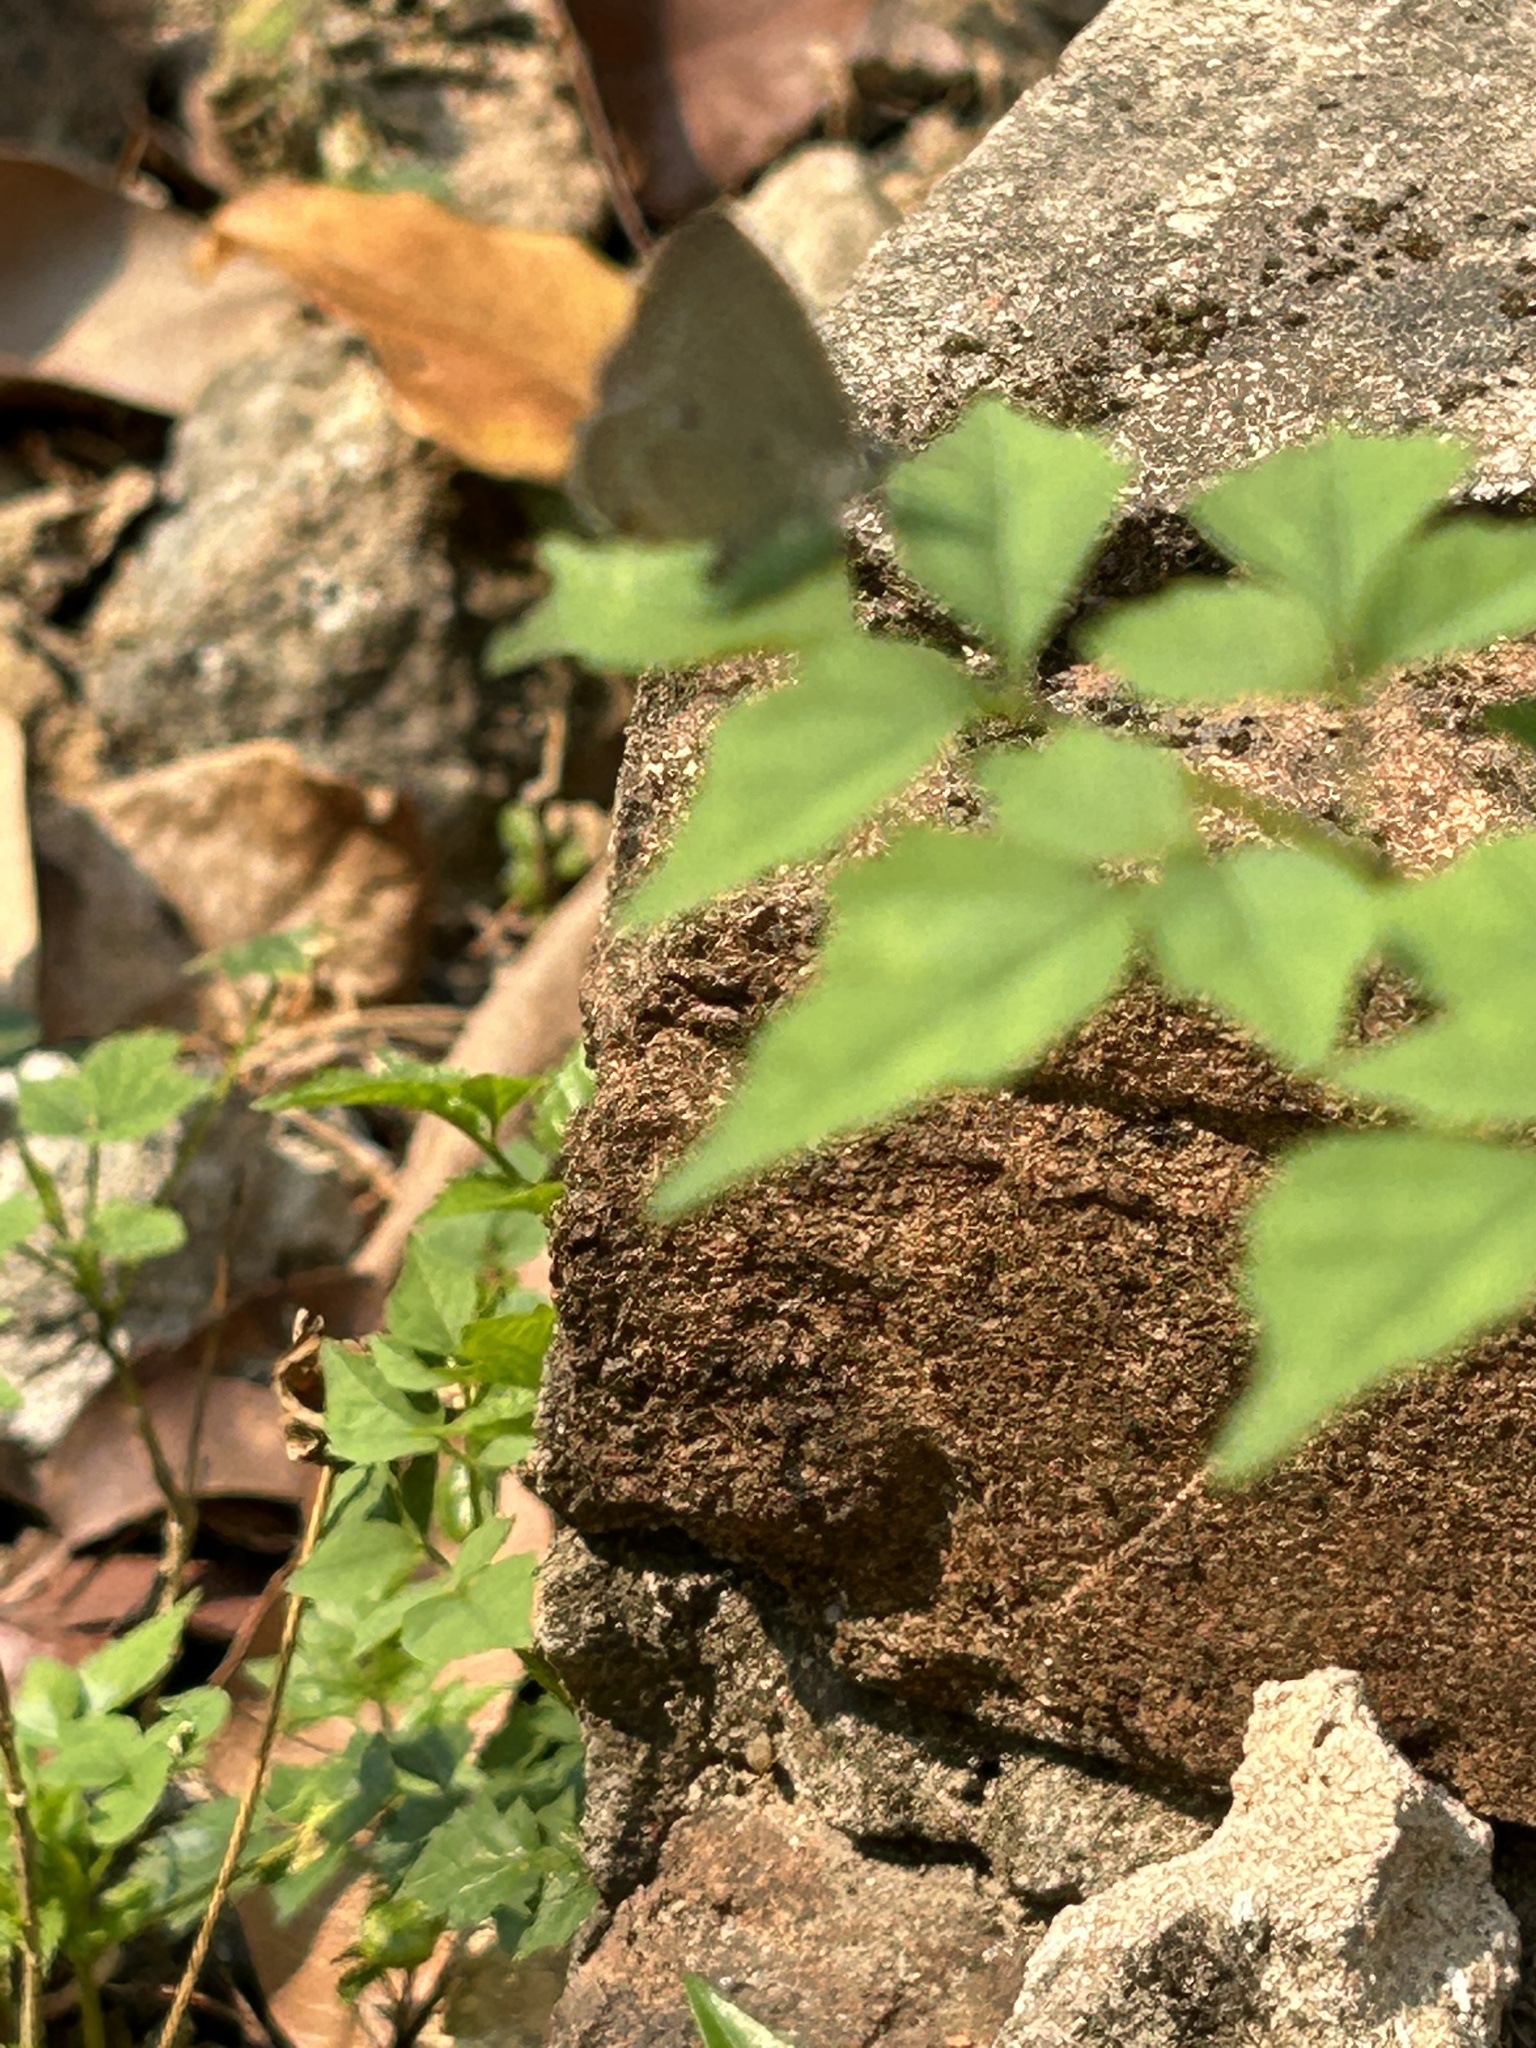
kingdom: Animalia
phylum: Arthropoda
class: Insecta
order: Lepidoptera
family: Lycaenidae
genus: Chilades
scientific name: Chilades laius
